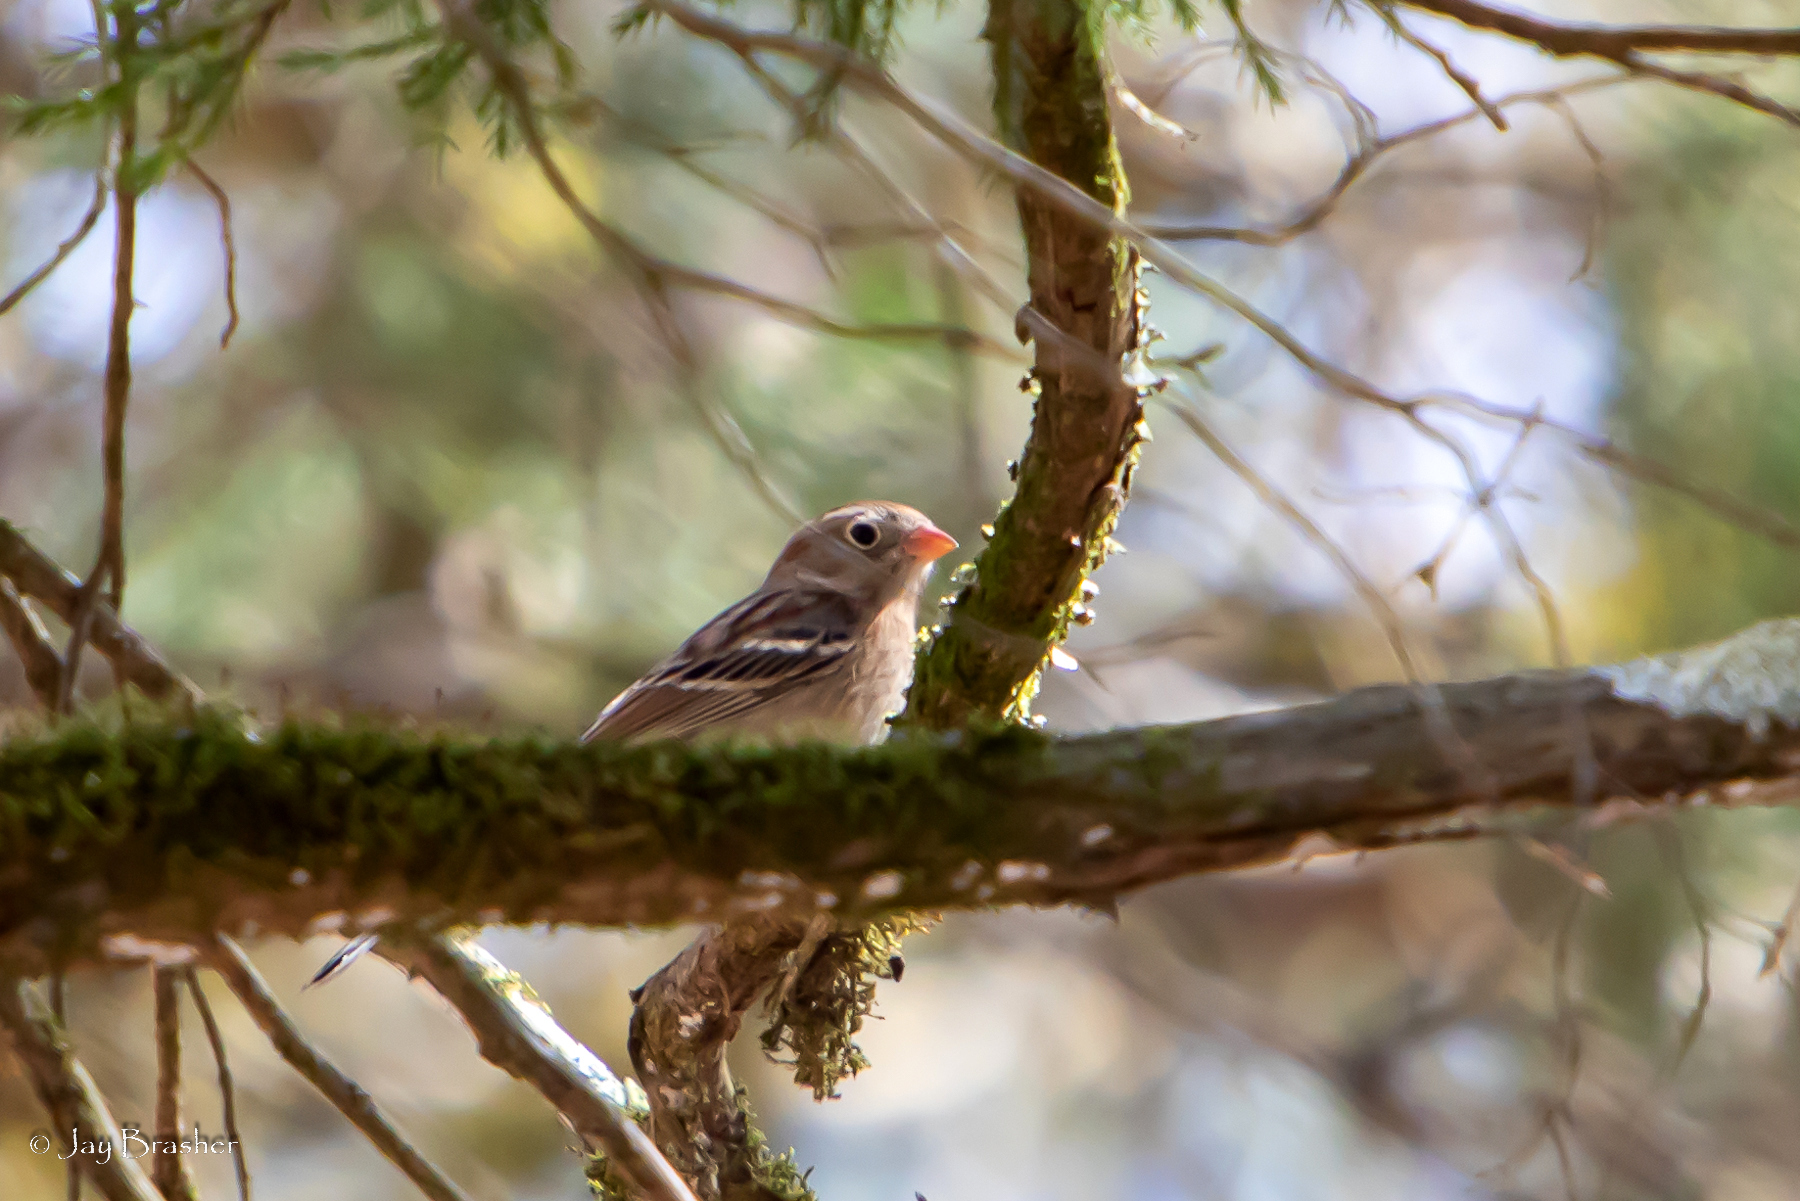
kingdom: Animalia
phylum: Chordata
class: Aves
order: Passeriformes
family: Passerellidae
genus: Spizella
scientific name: Spizella pusilla
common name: Field sparrow
